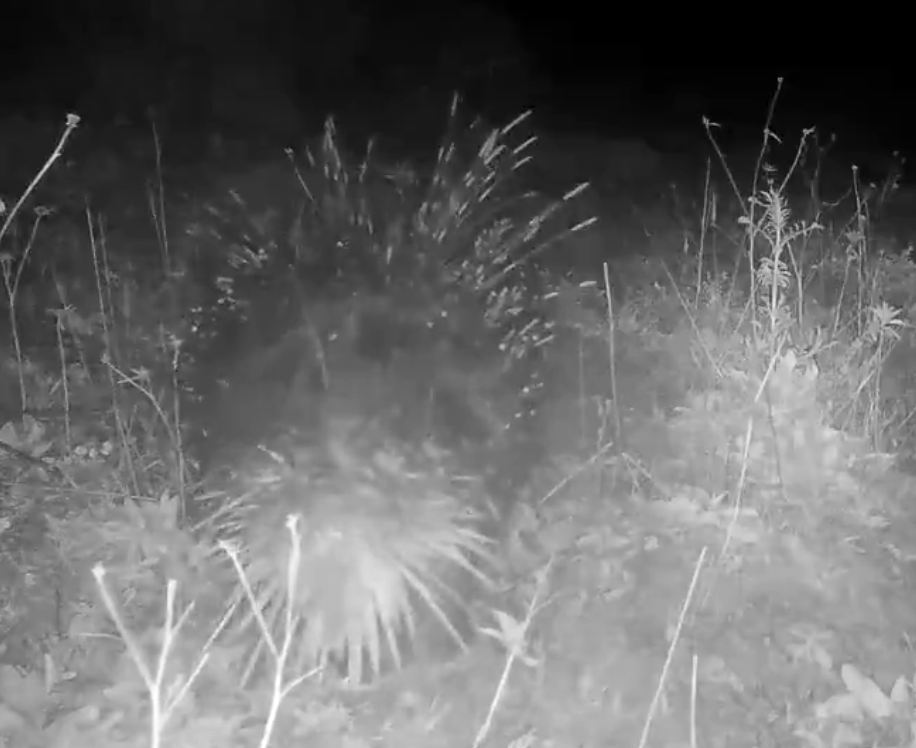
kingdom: Animalia
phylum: Chordata
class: Mammalia
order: Rodentia
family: Hystricidae
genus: Hystrix
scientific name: Hystrix cristata
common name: Crested porcupine
